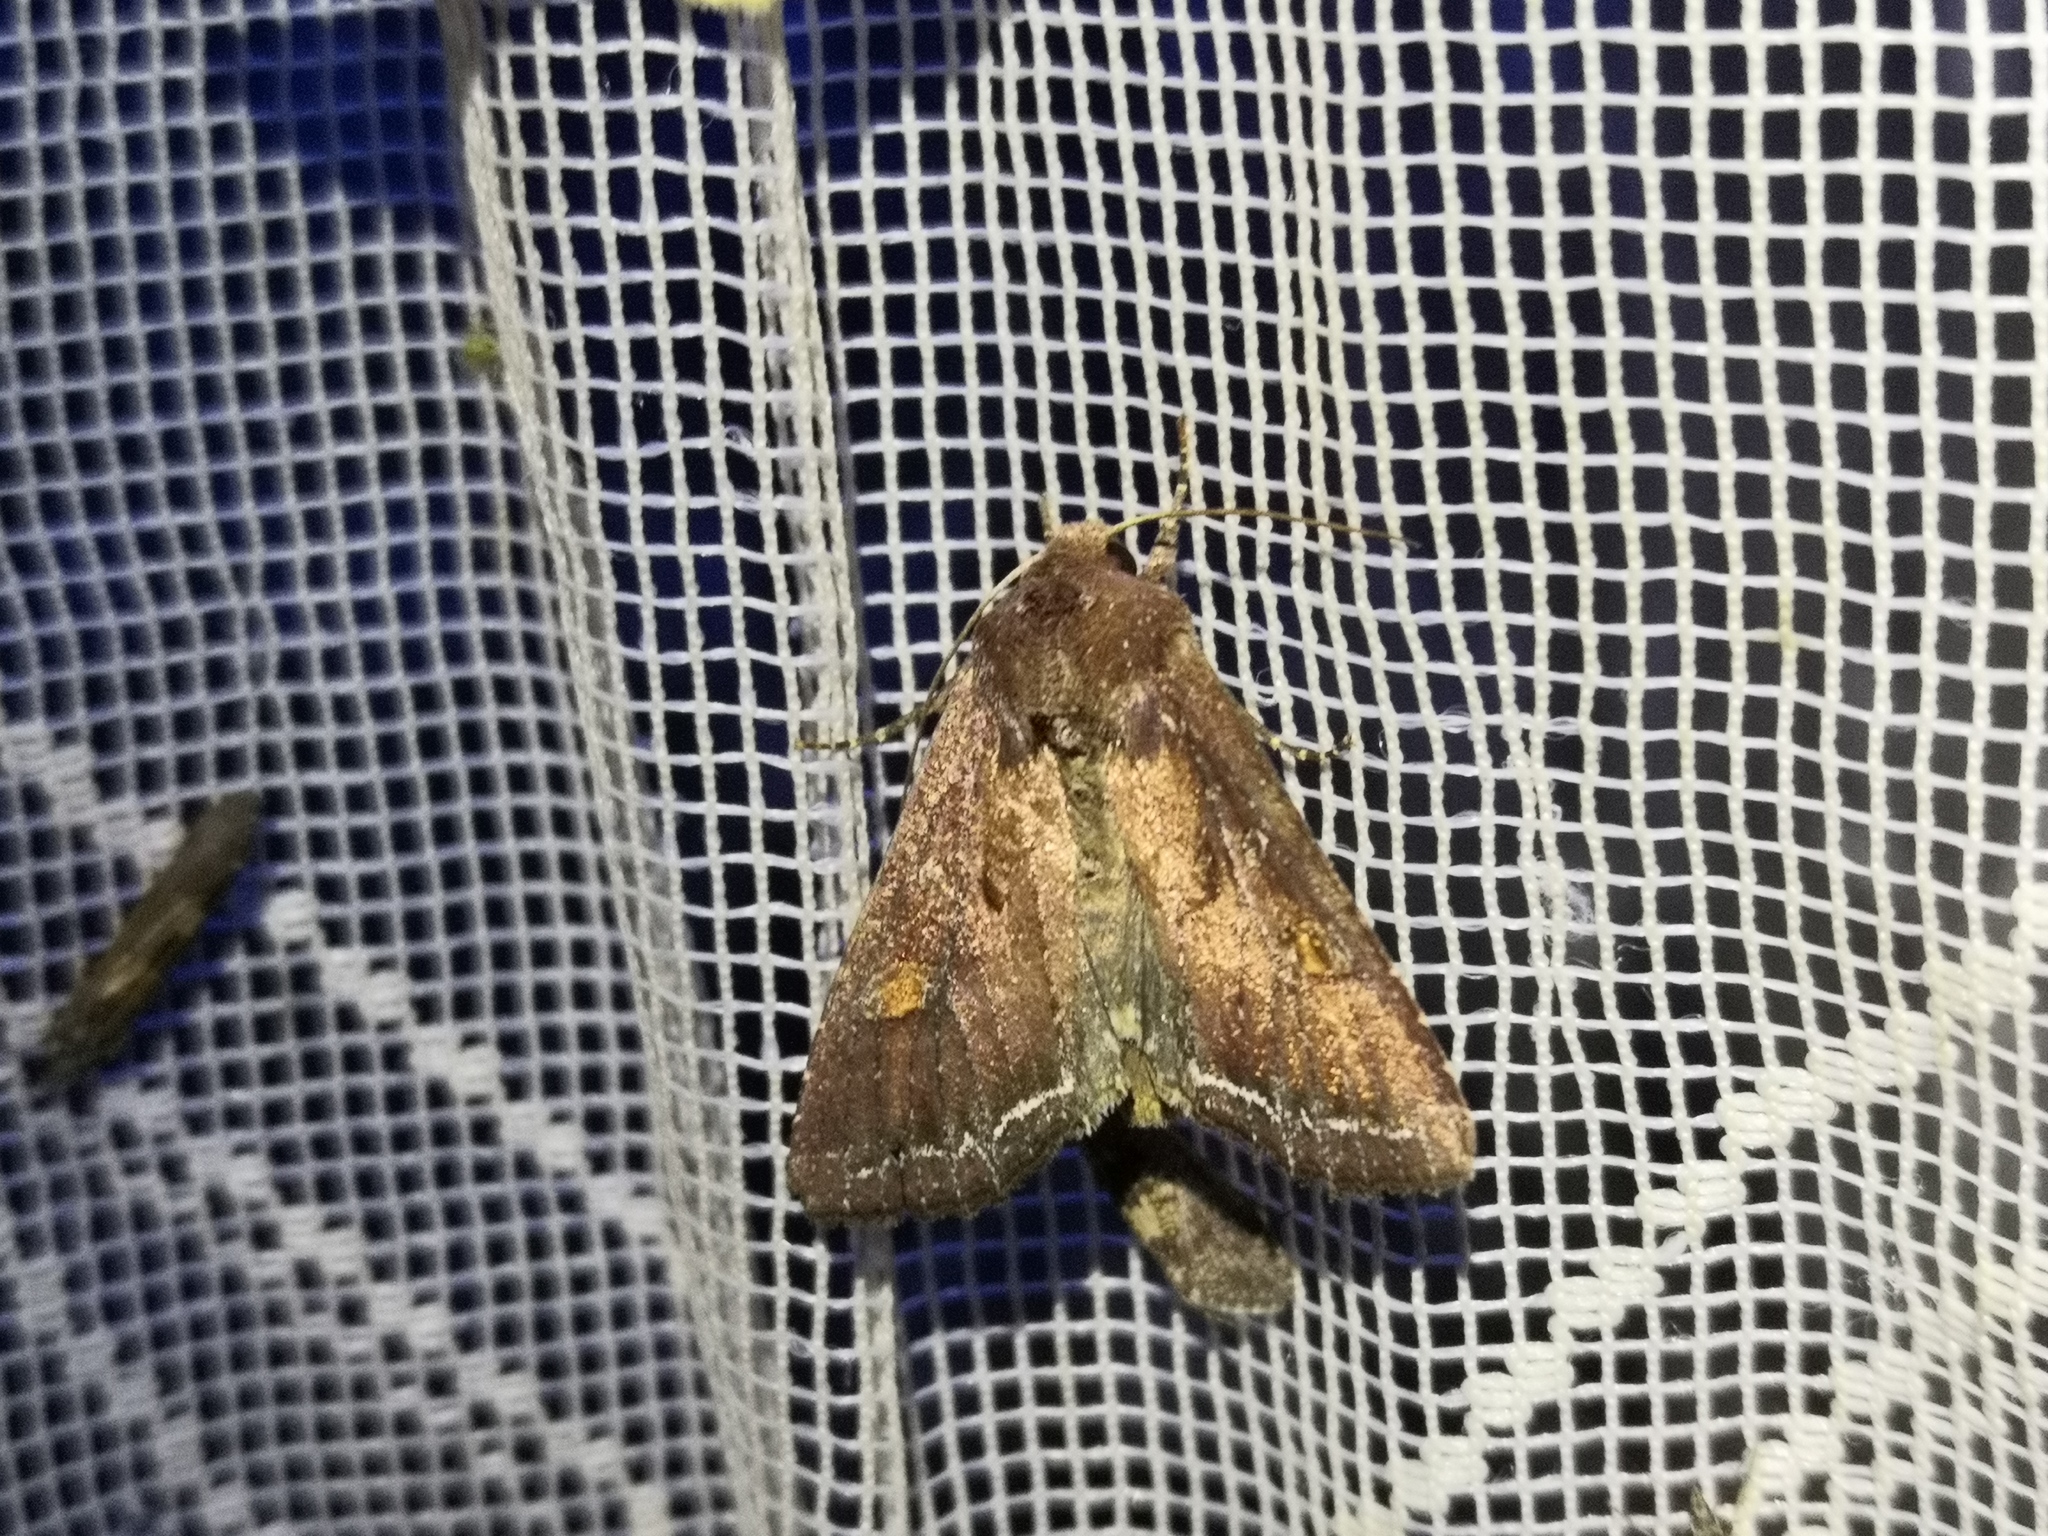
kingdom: Animalia
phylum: Arthropoda
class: Insecta
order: Lepidoptera
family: Noctuidae
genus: Lacanobia
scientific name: Lacanobia oleracea
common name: Bright-line brown-eye
